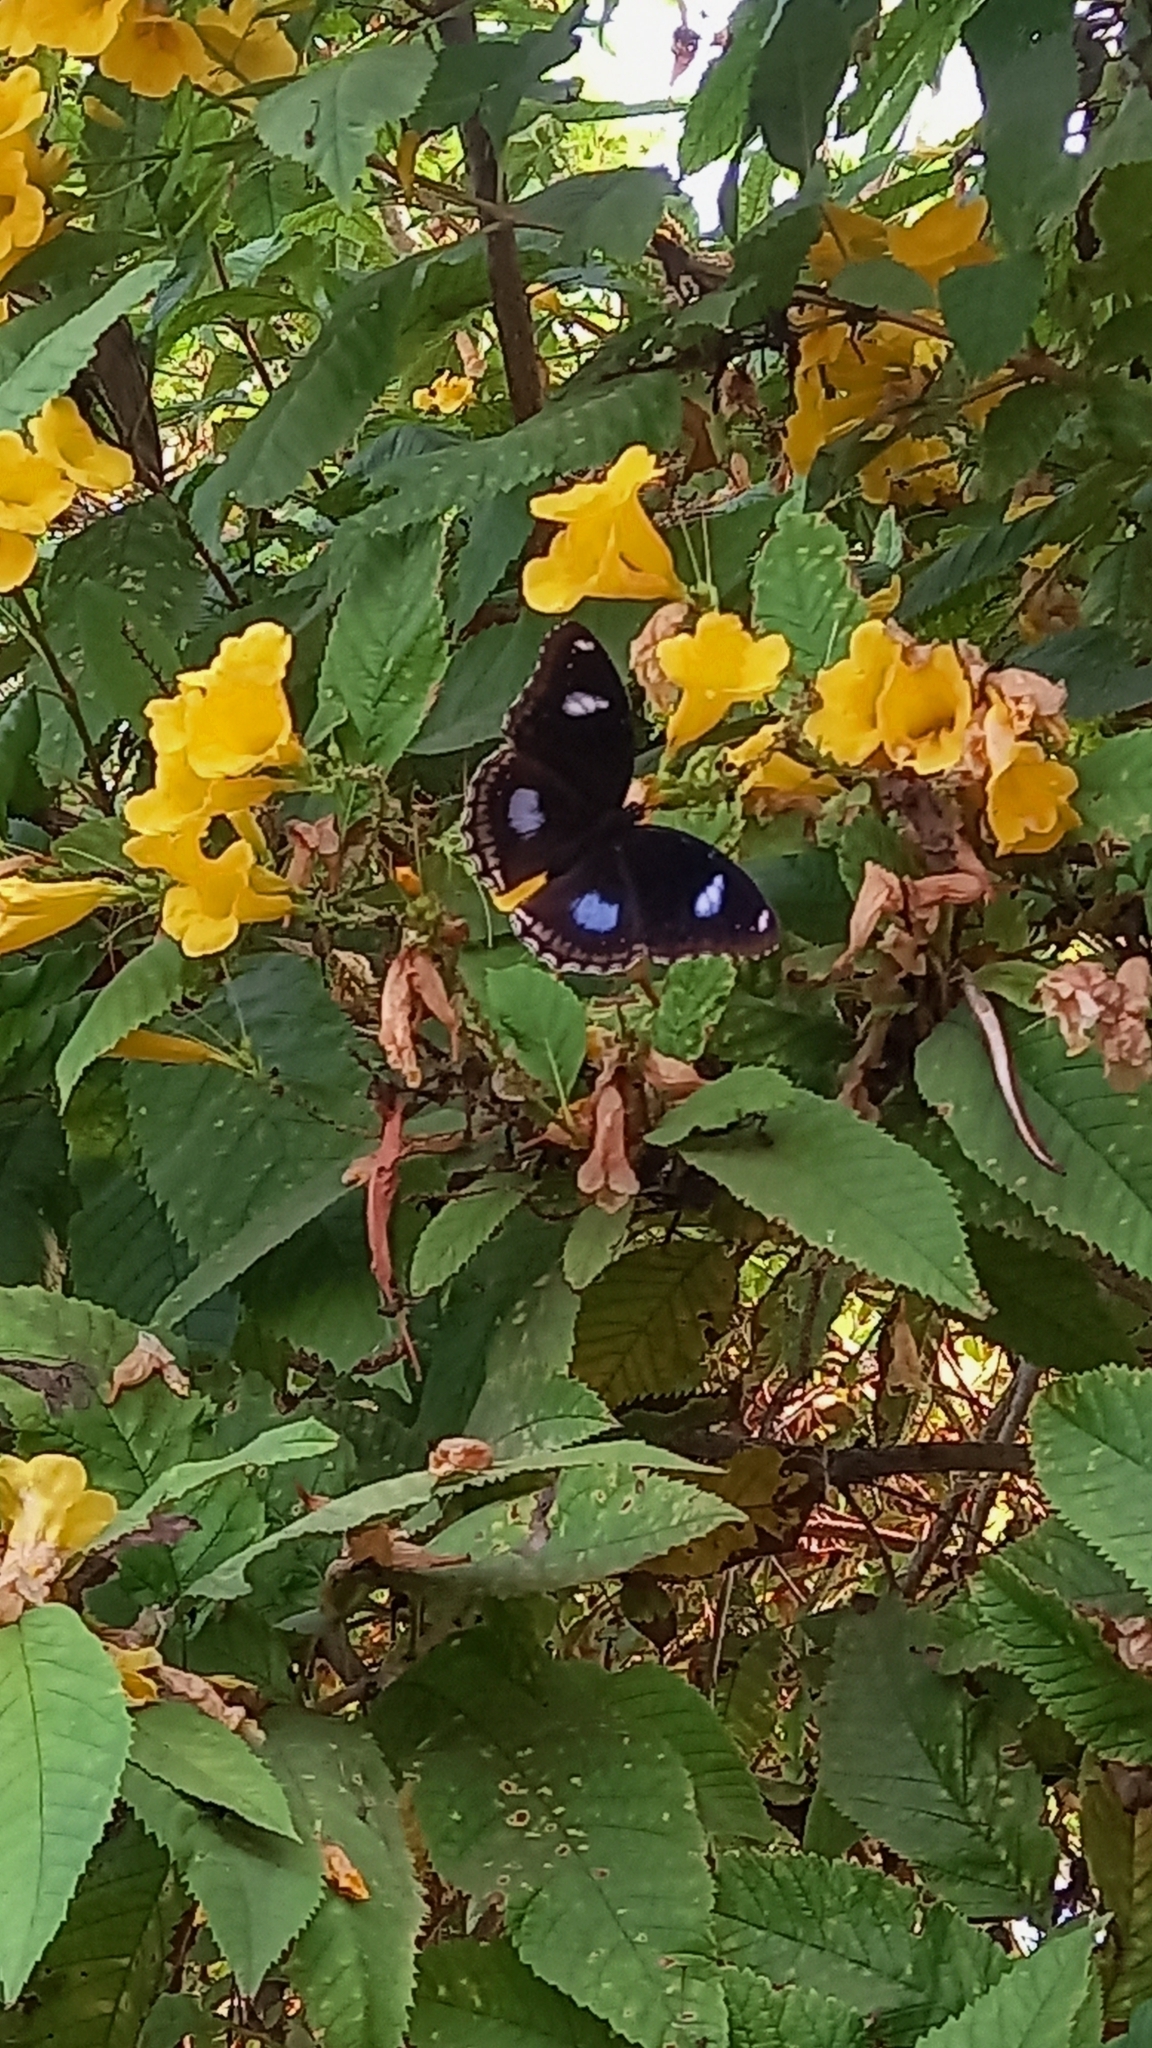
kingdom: Animalia
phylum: Arthropoda
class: Insecta
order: Lepidoptera
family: Nymphalidae
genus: Hypolimnas
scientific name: Hypolimnas bolina
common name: Great eggfly
